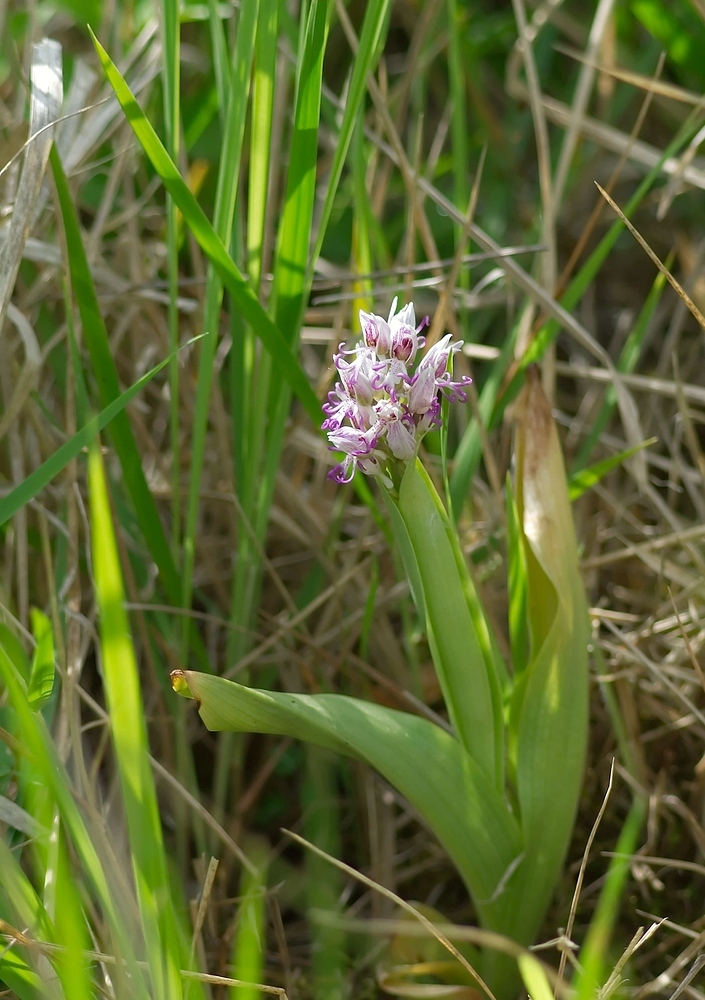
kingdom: Plantae
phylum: Tracheophyta
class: Liliopsida
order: Asparagales
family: Orchidaceae
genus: Orchis
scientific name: Orchis simia
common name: Monkey orchid
